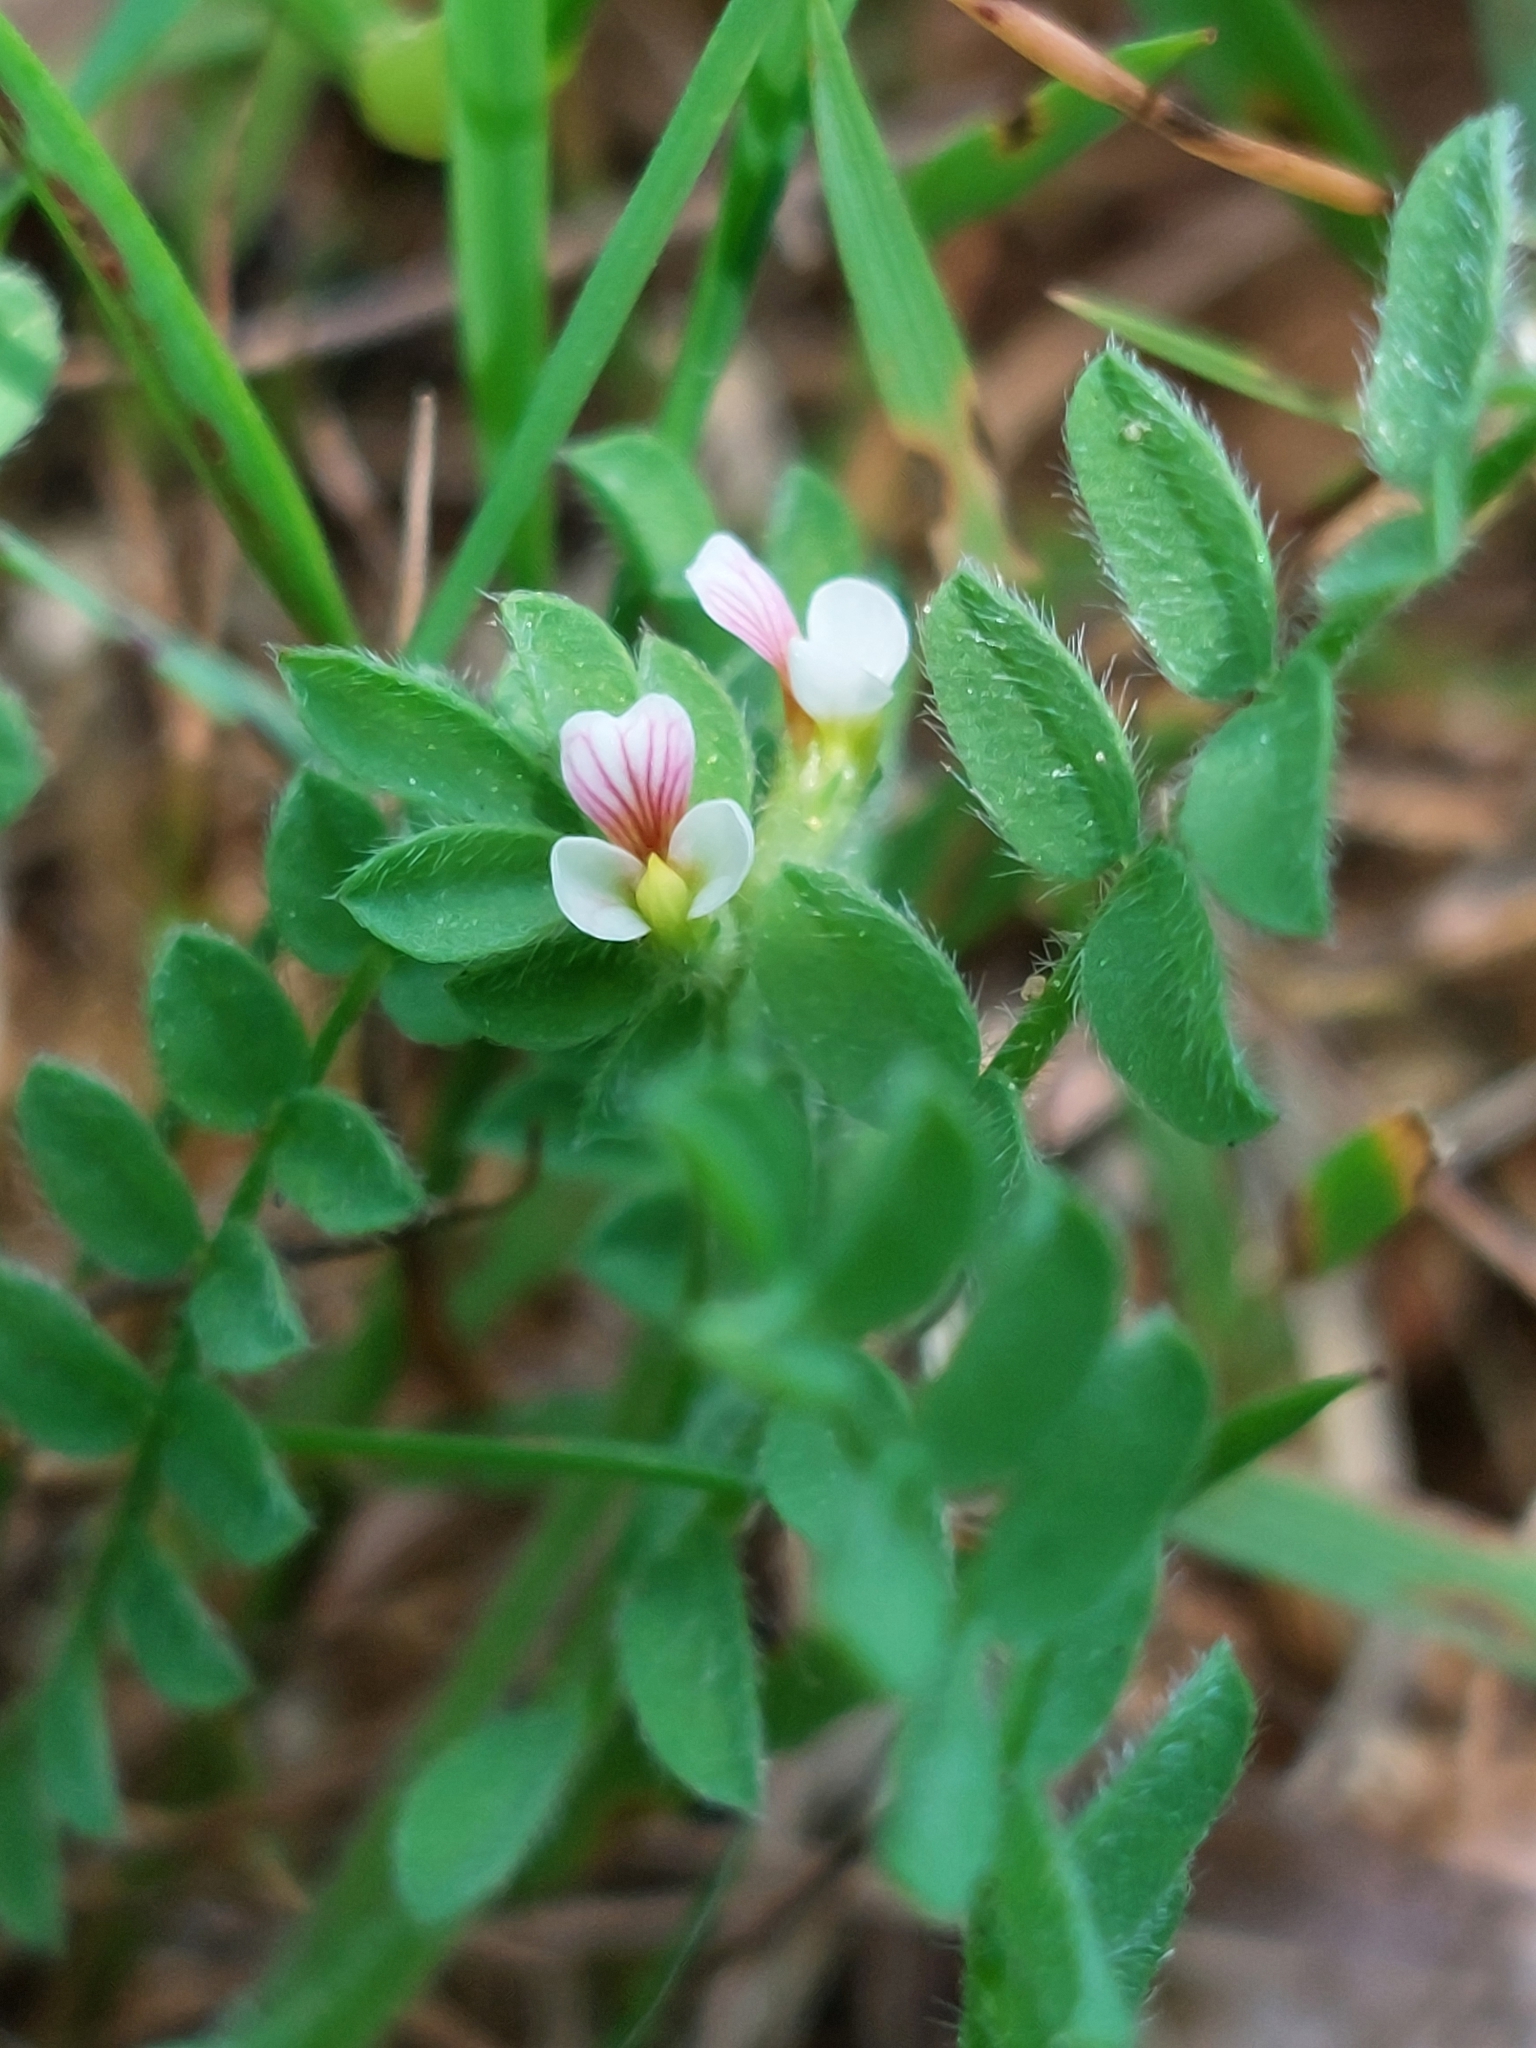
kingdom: Plantae
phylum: Tracheophyta
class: Magnoliopsida
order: Fabales
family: Fabaceae
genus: Ornithopus
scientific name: Ornithopus perpusillus
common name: Bird's-foot
